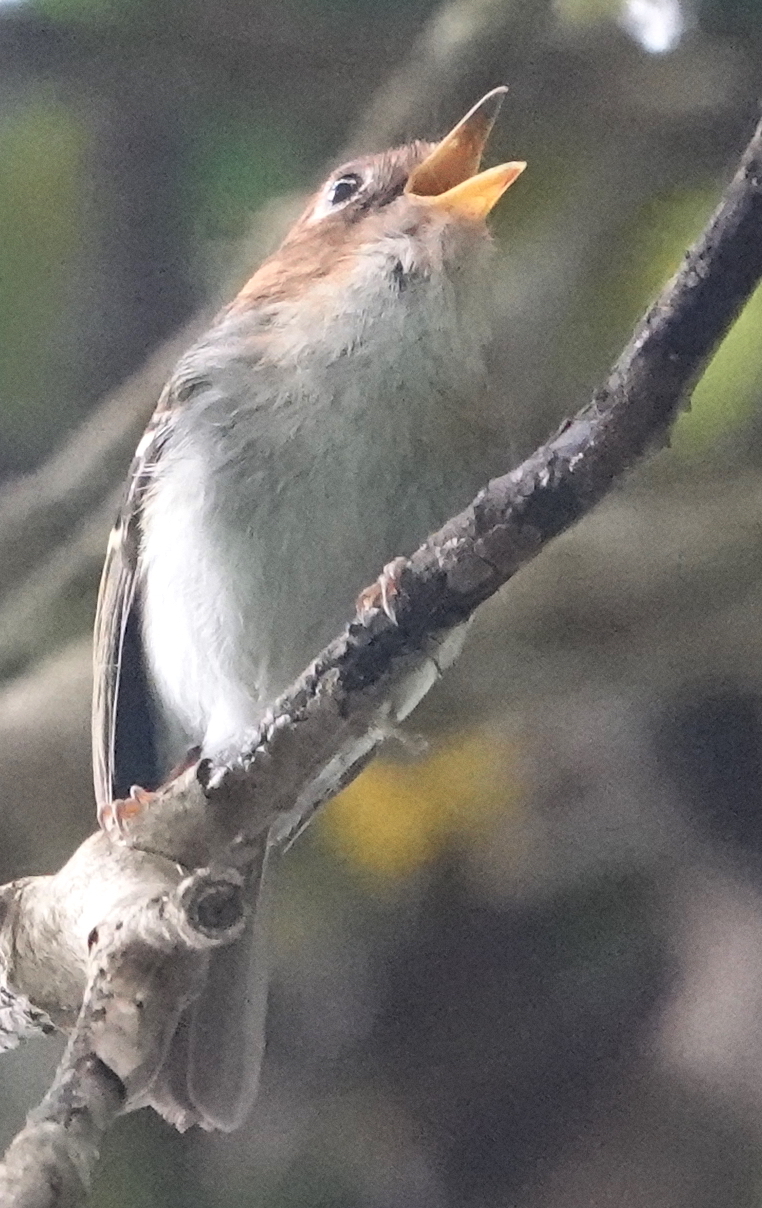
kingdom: Animalia
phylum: Chordata
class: Aves
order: Passeriformes
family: Phylloscopidae
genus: Seicercus
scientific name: Seicercus grammiceps
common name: Sunda warbler
